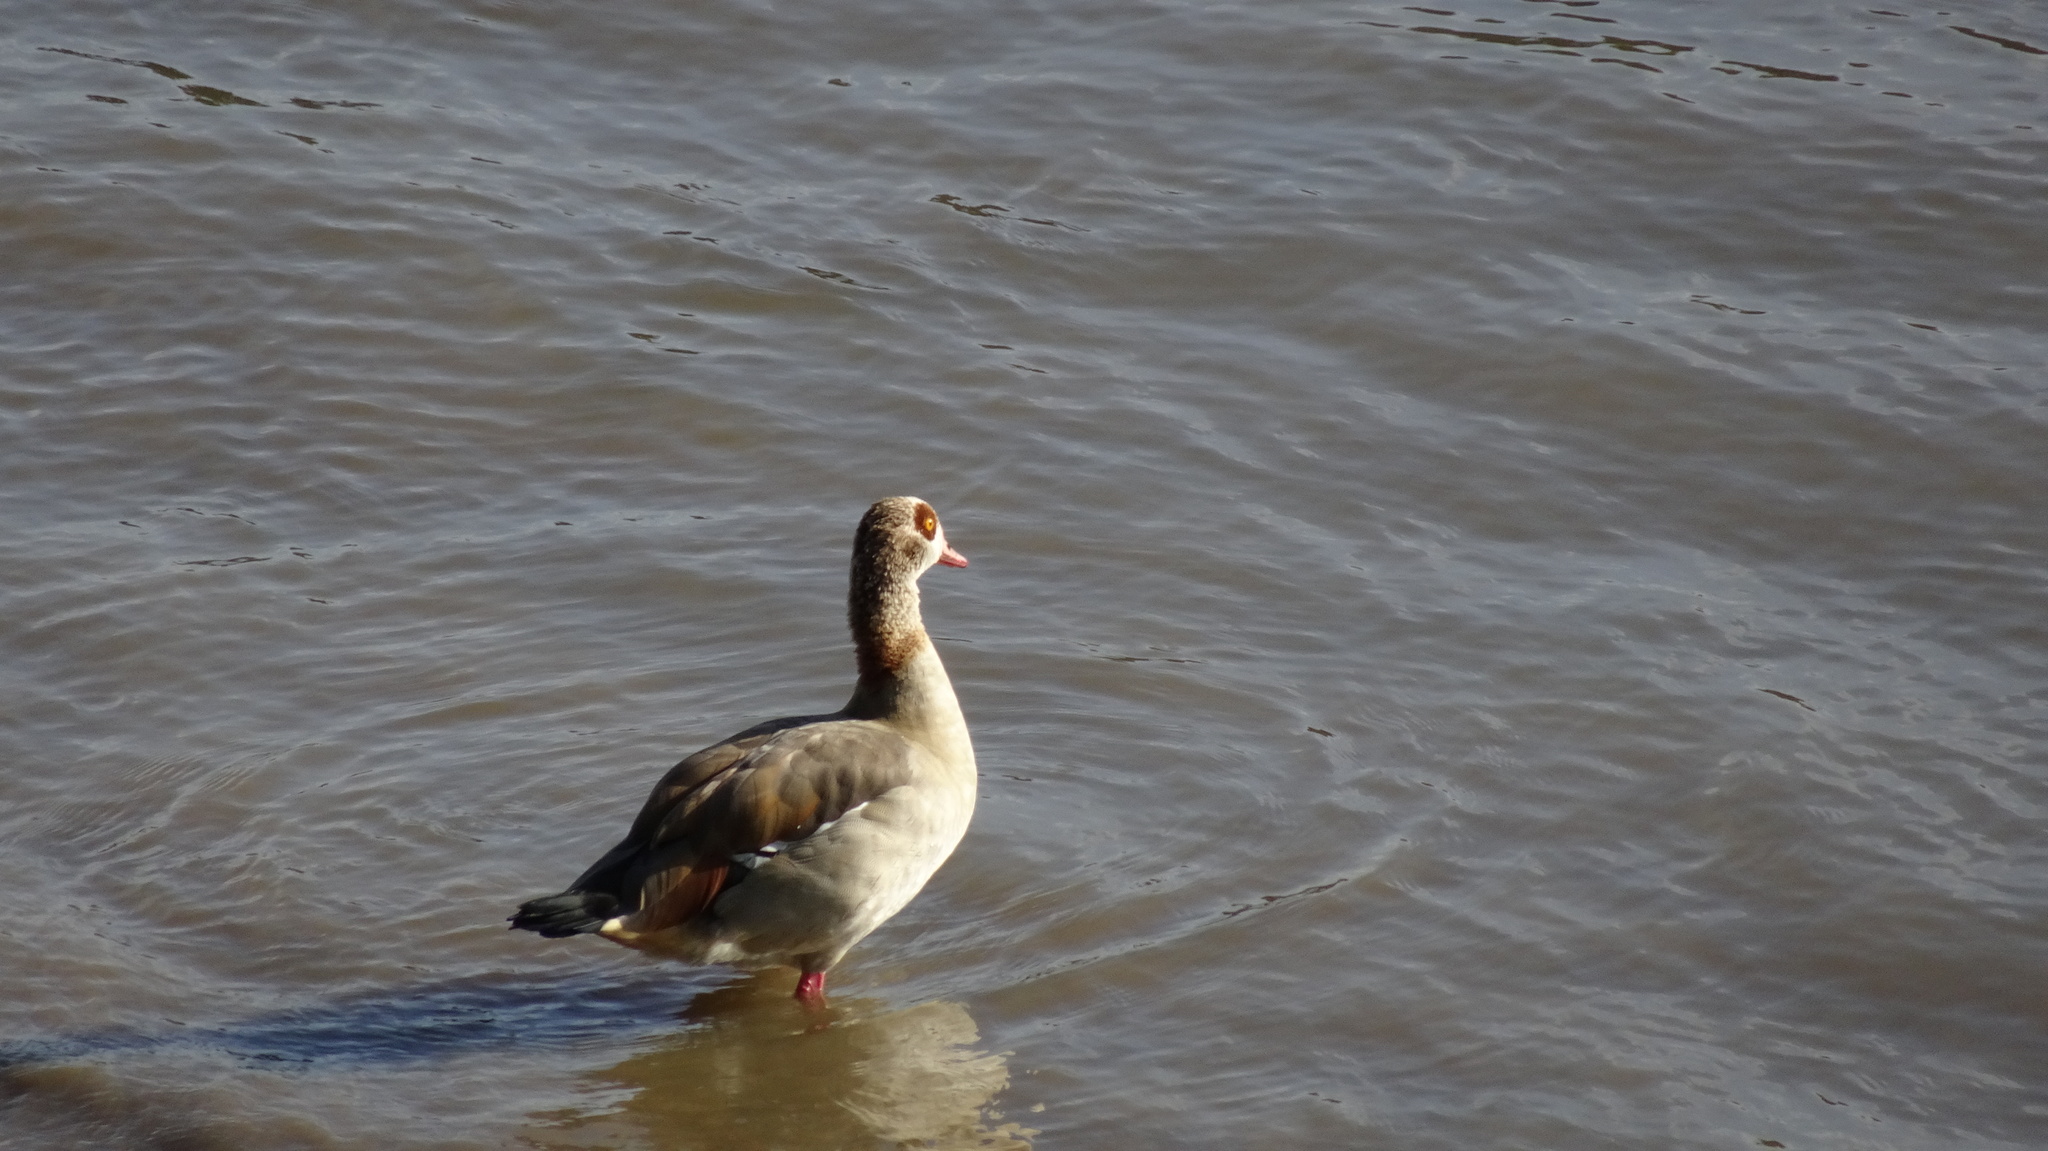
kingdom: Animalia
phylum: Chordata
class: Aves
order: Anseriformes
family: Anatidae
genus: Alopochen
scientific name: Alopochen aegyptiaca
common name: Egyptian goose
